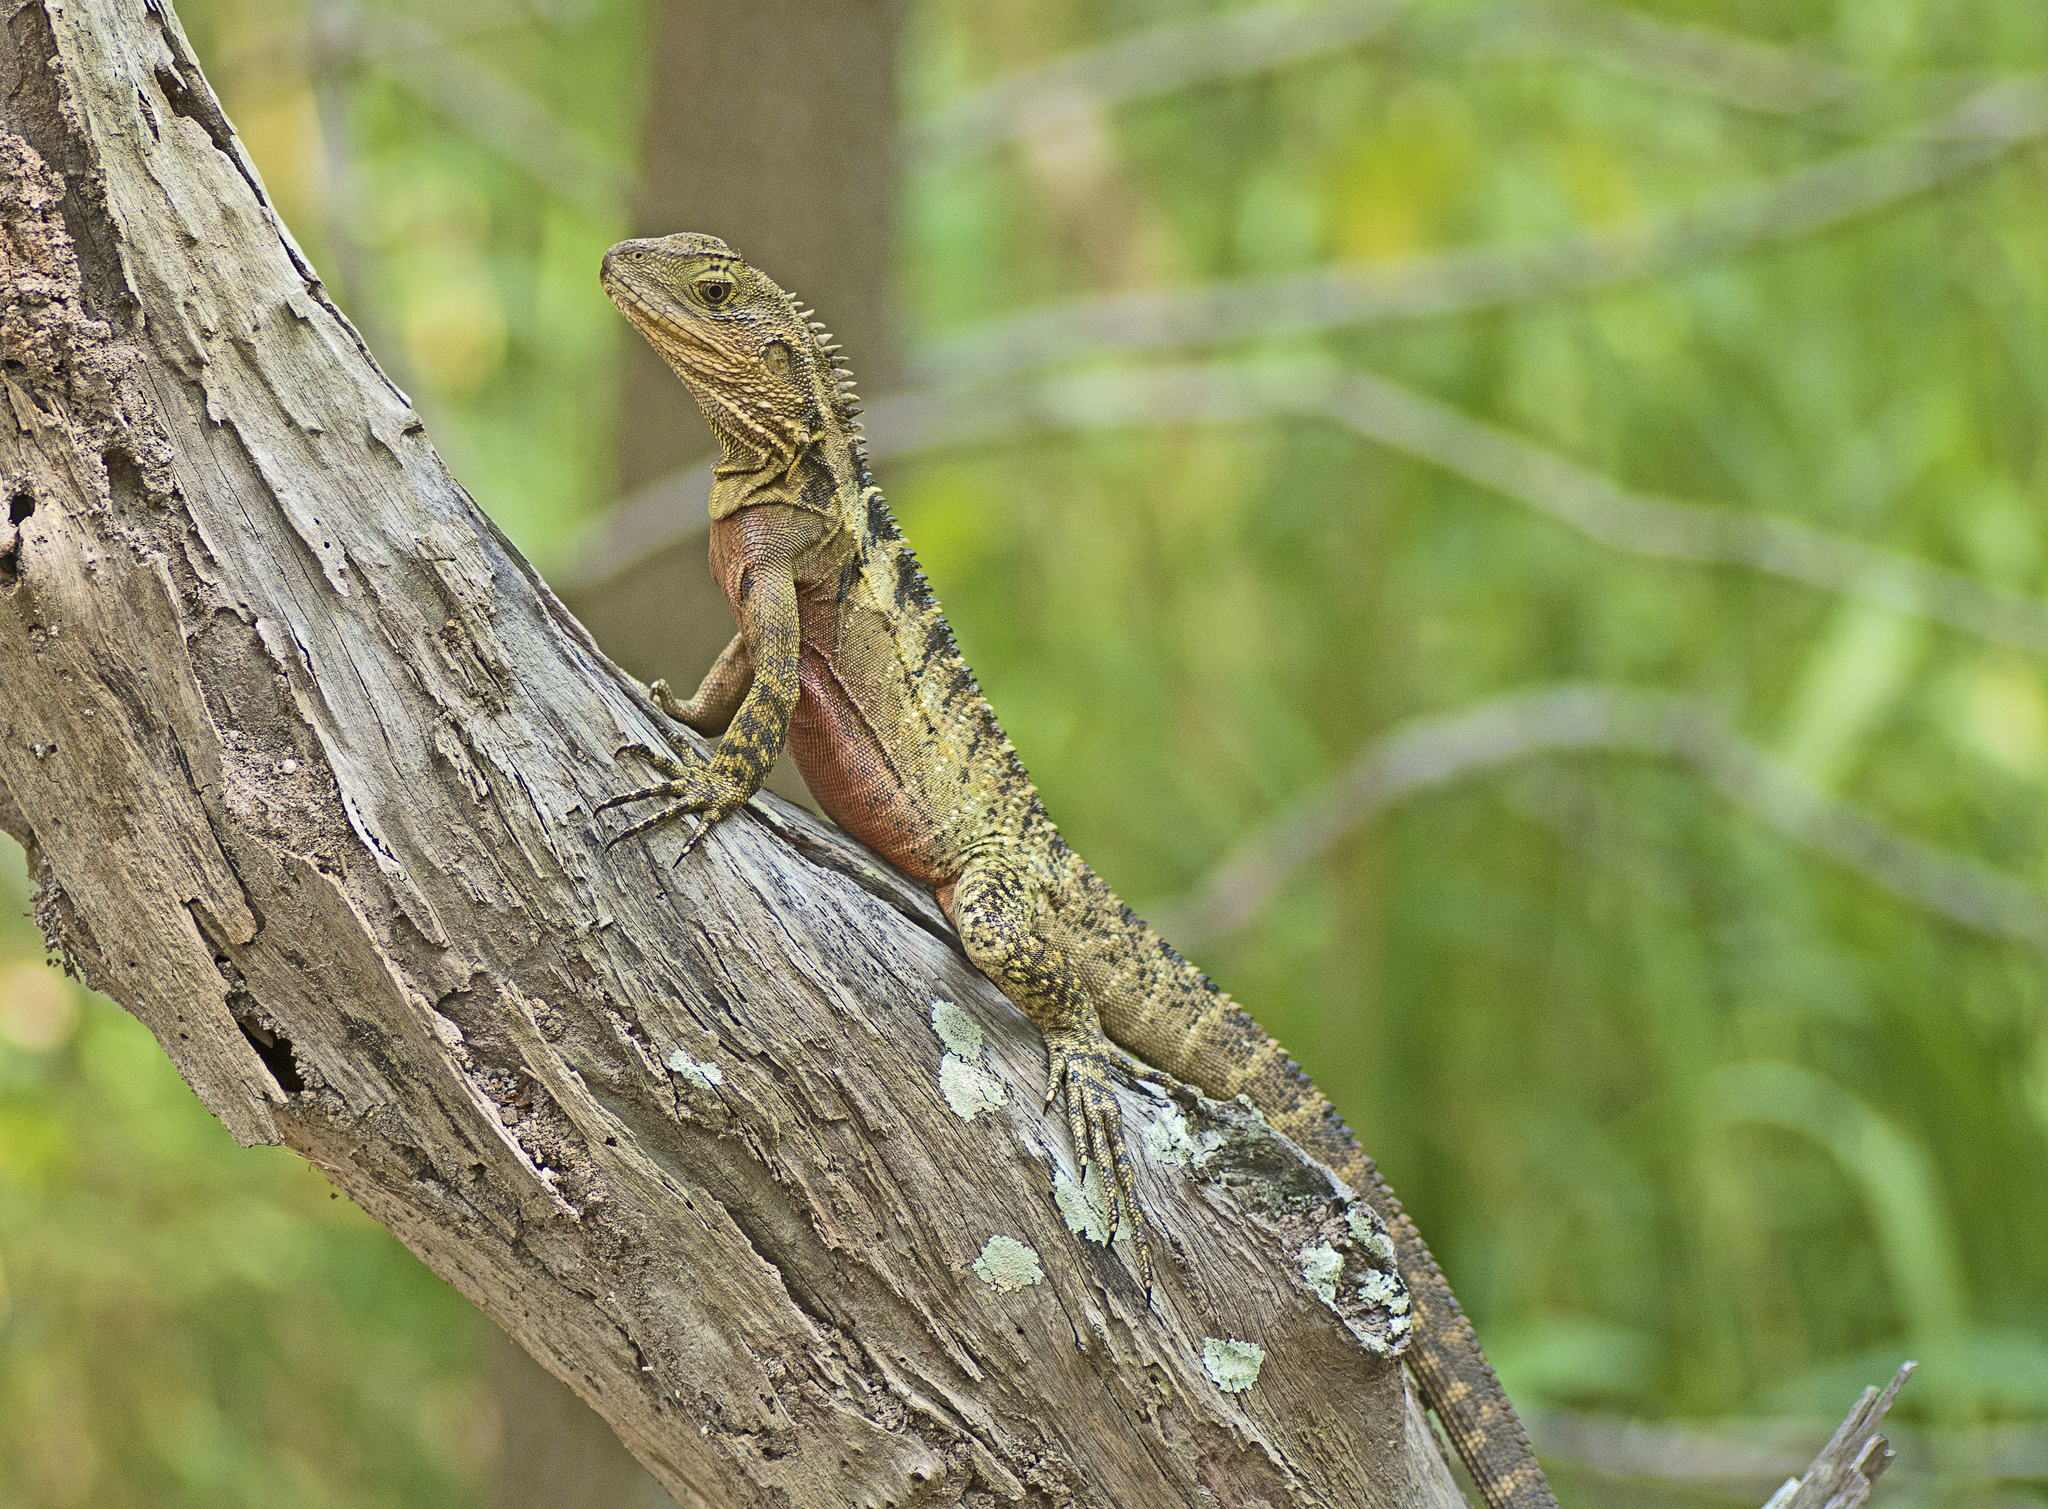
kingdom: Animalia
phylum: Chordata
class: Squamata
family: Agamidae
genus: Intellagama
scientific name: Intellagama lesueurii
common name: Eastern water dragon
